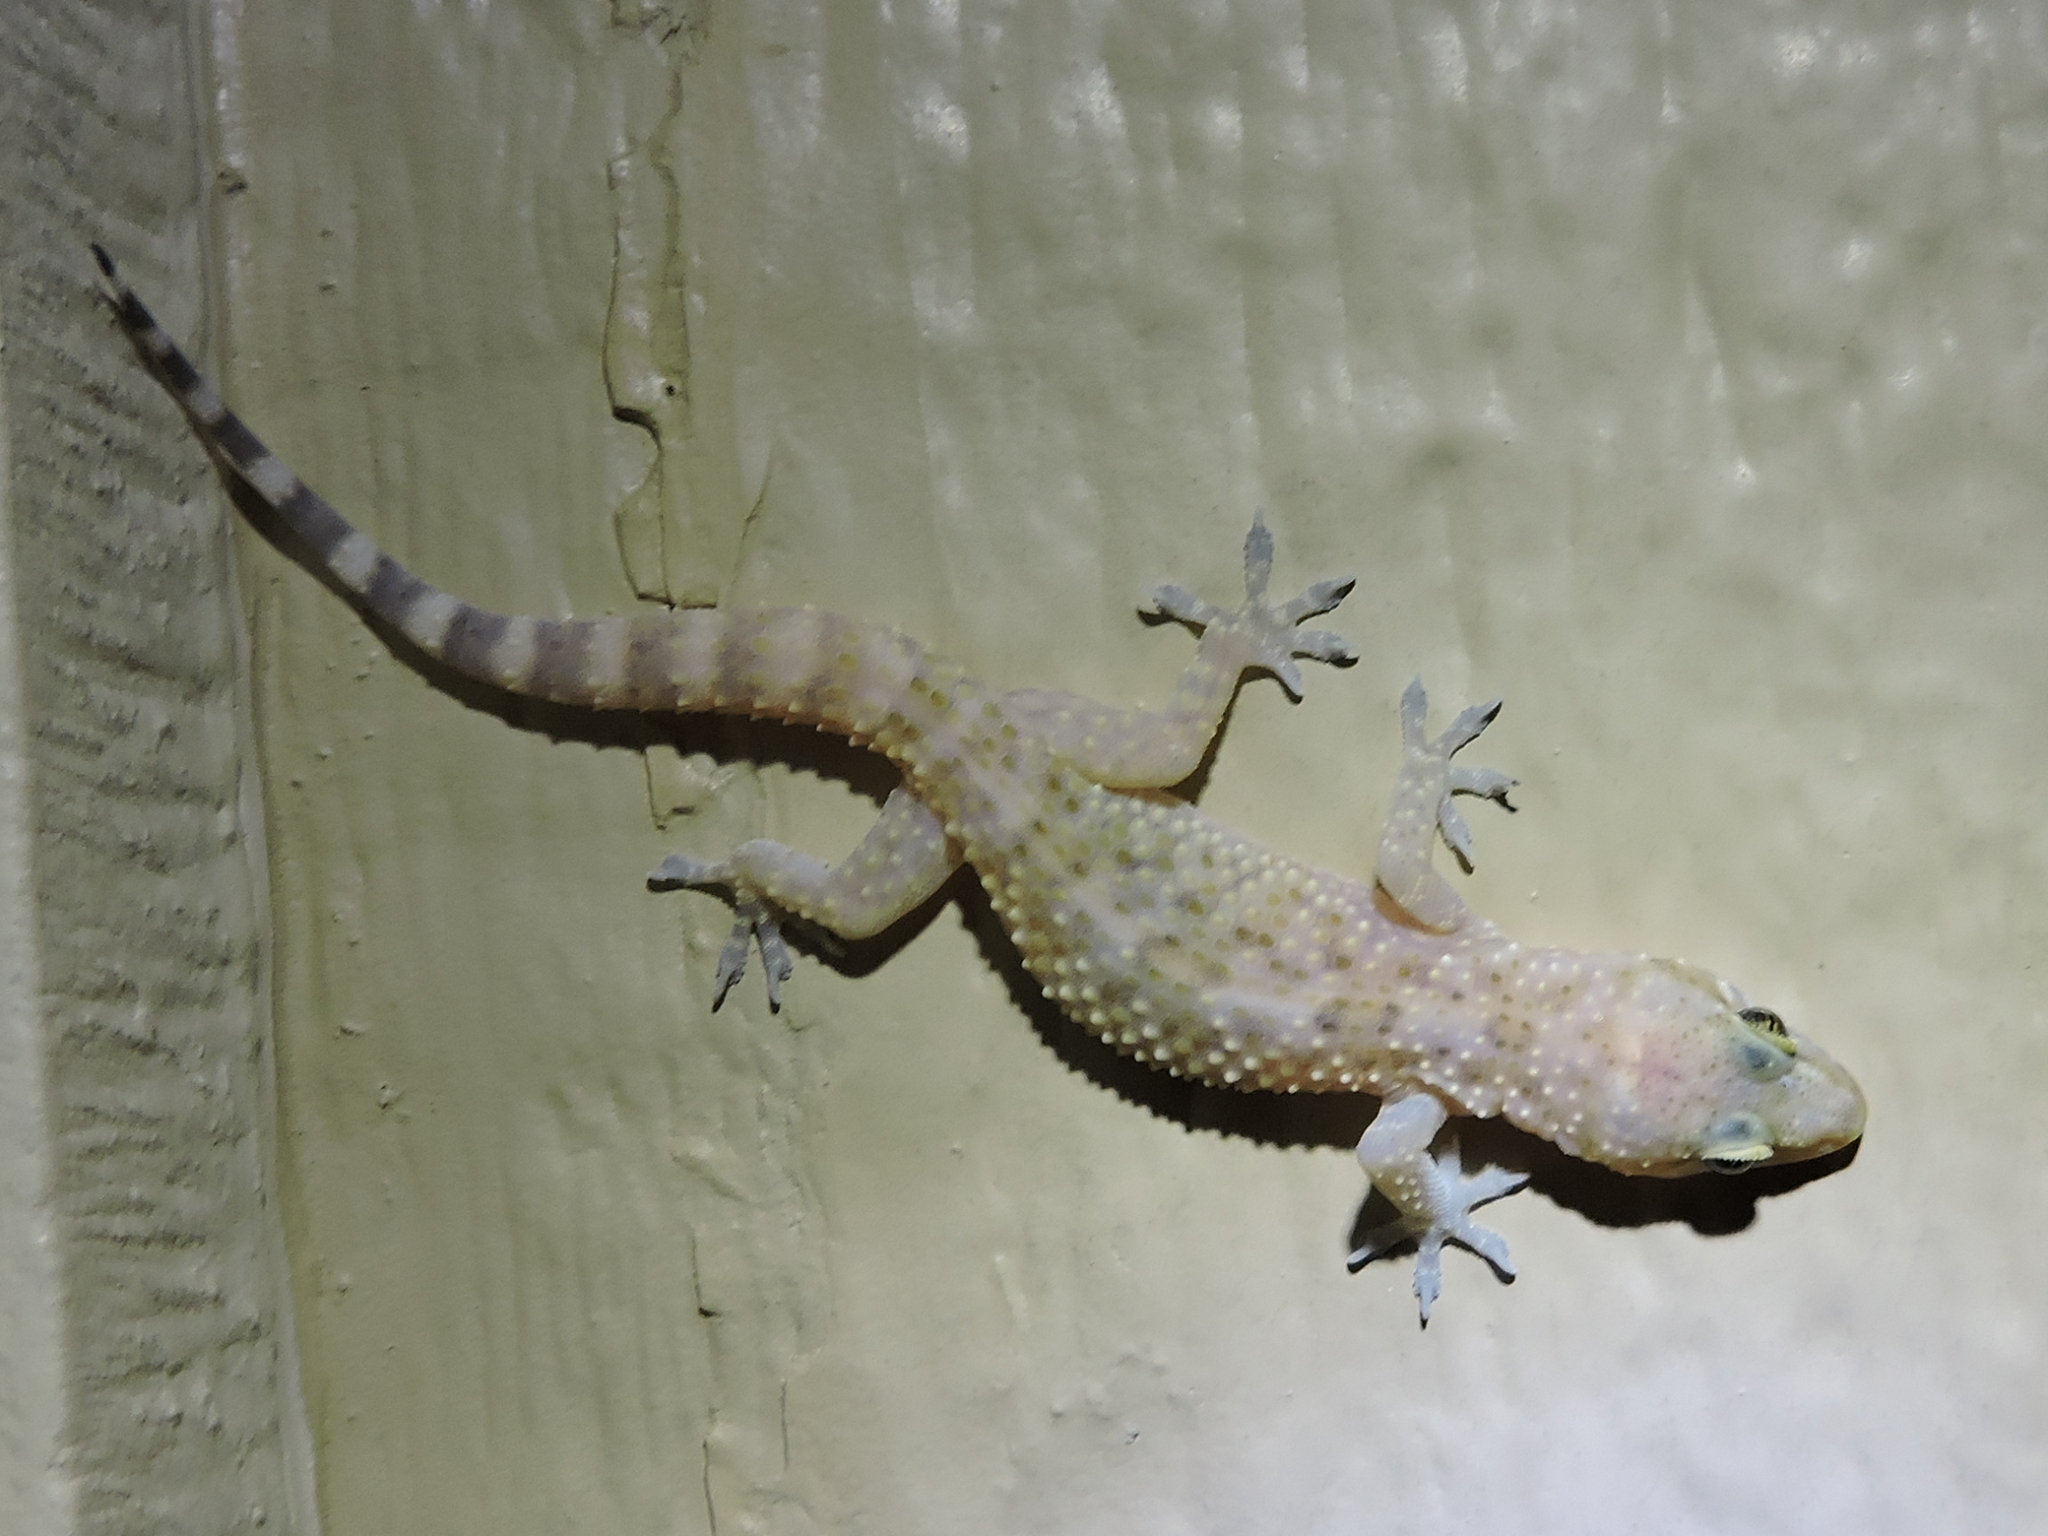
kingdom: Animalia
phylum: Chordata
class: Squamata
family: Gekkonidae
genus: Hemidactylus
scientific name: Hemidactylus turcicus
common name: Turkish gecko
